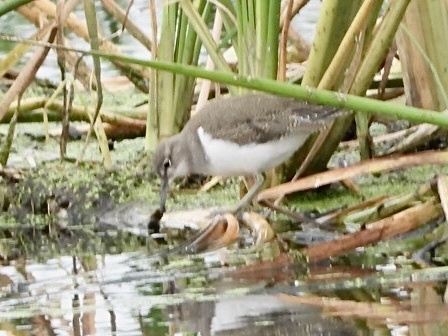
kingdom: Animalia
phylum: Chordata
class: Aves
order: Charadriiformes
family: Scolopacidae
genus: Actitis
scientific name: Actitis hypoleucos
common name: Common sandpiper
